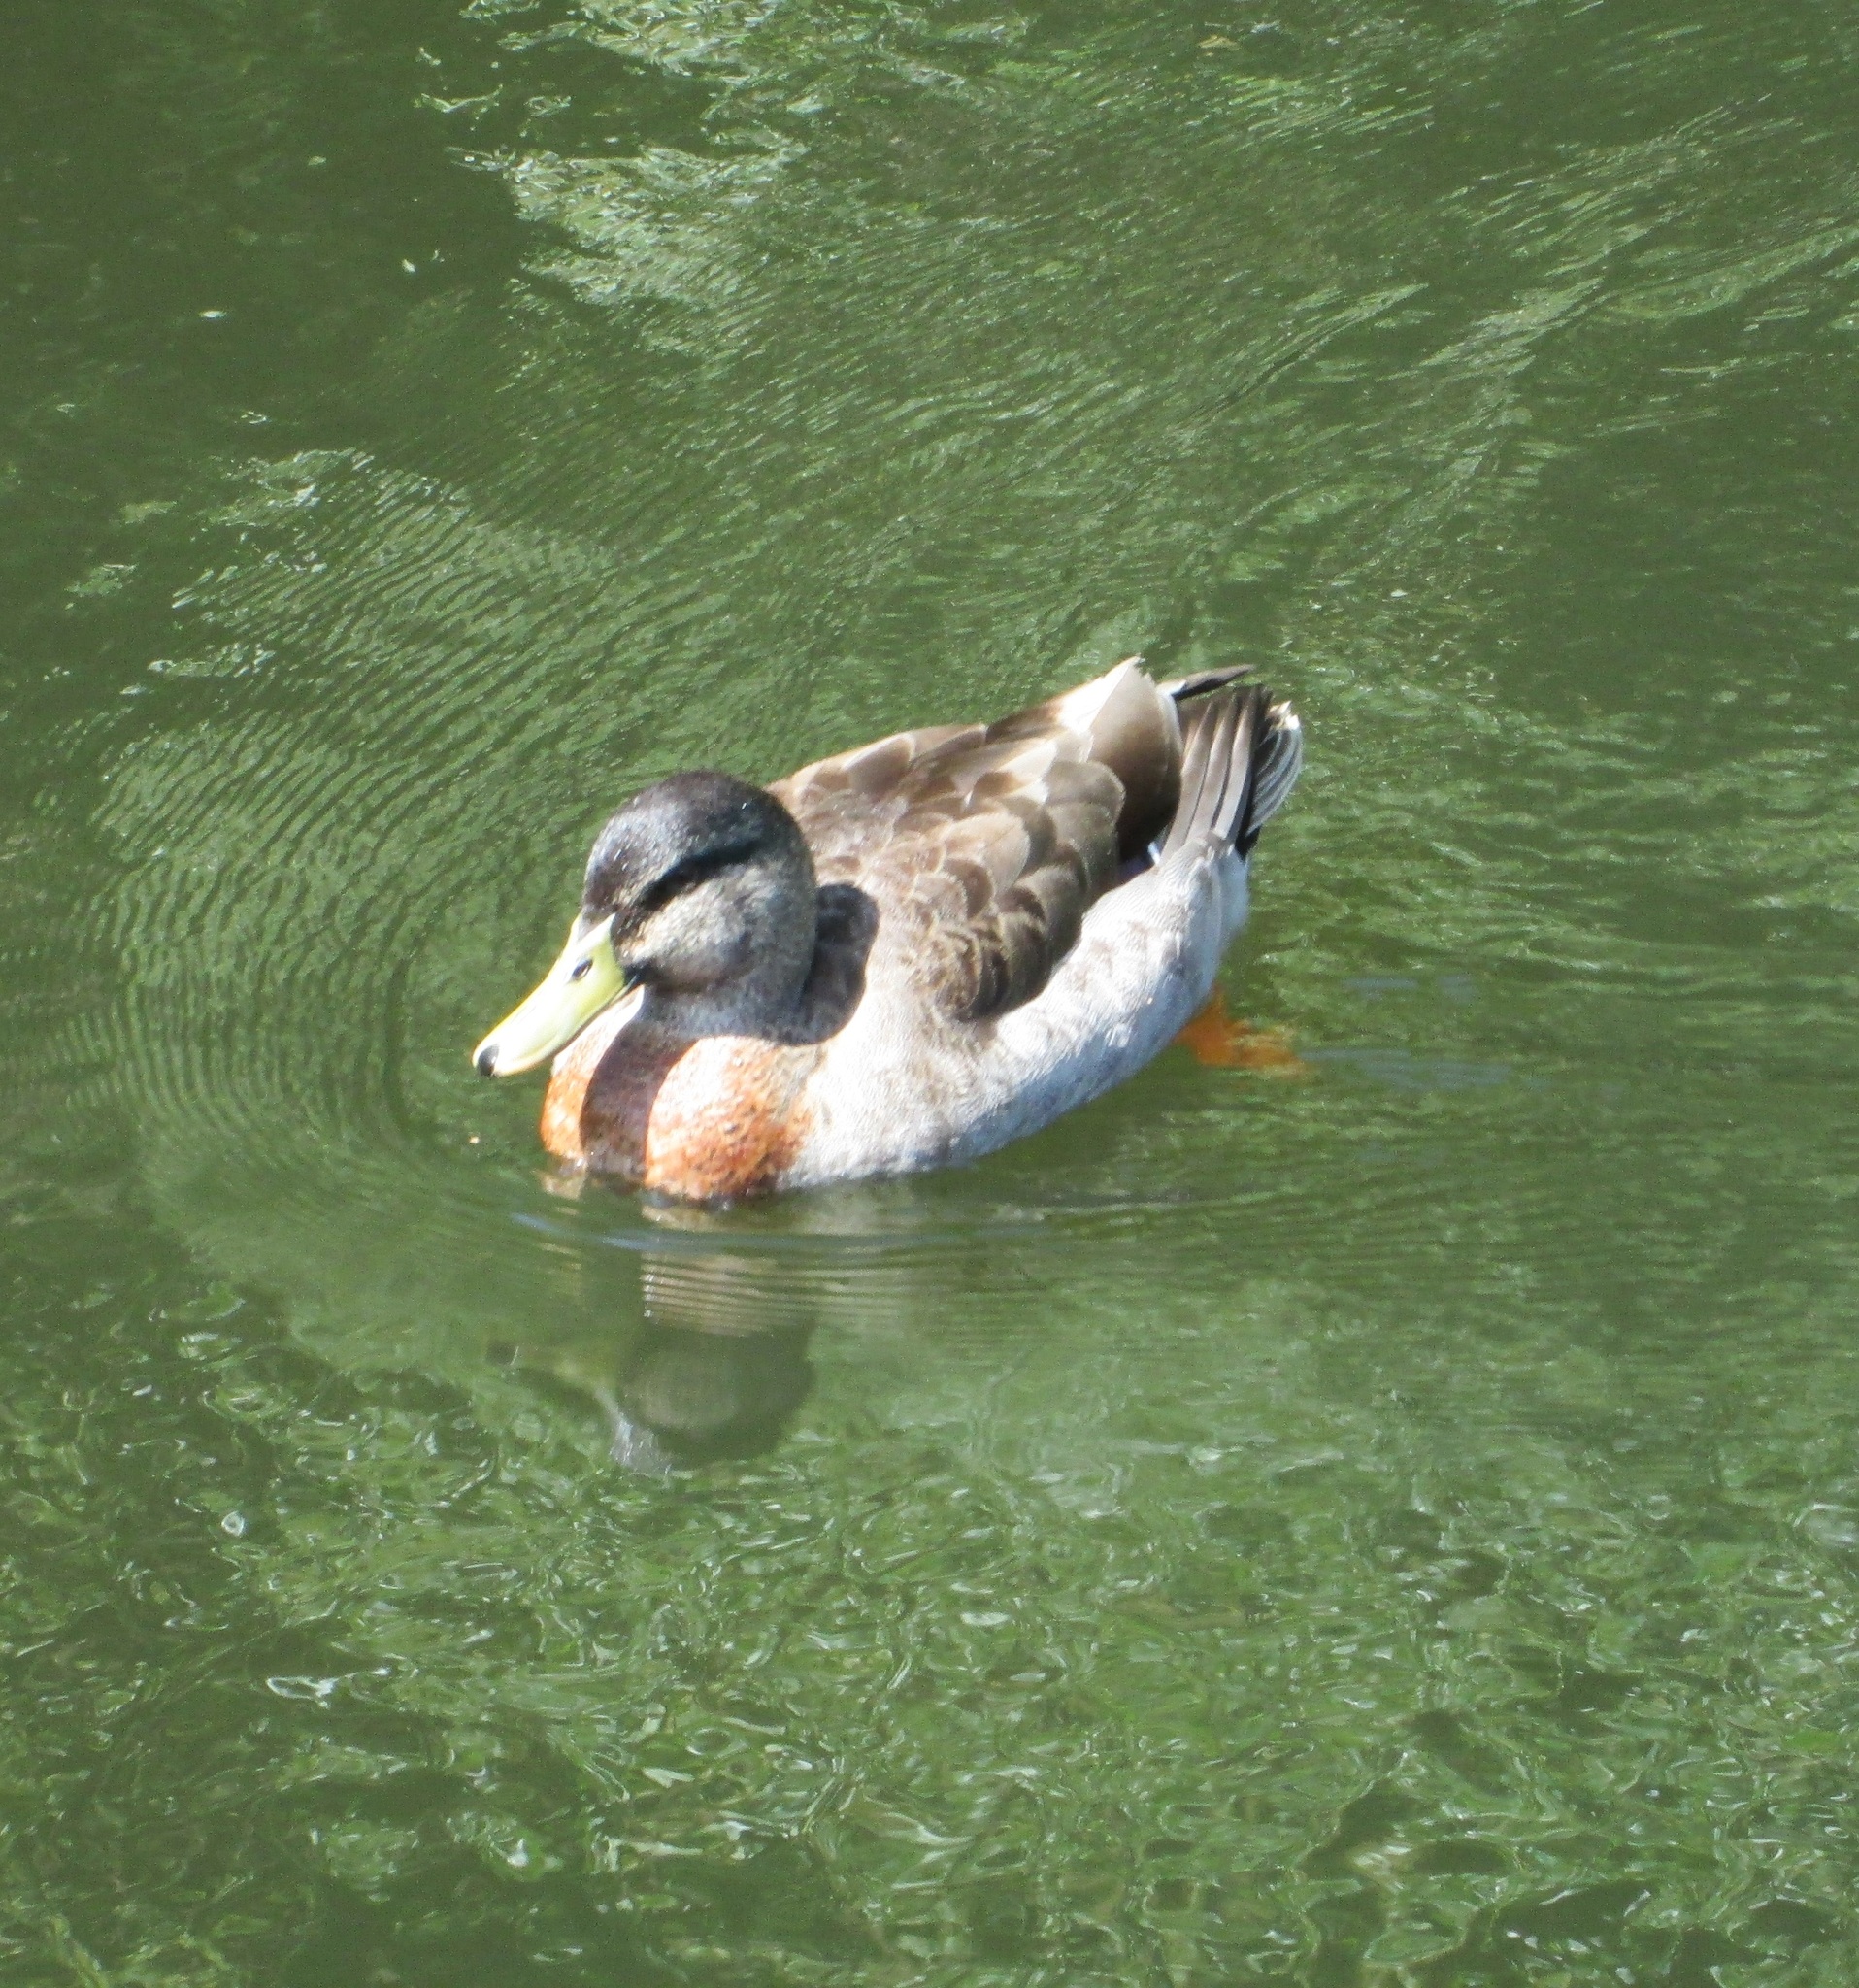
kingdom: Animalia
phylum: Chordata
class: Aves
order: Anseriformes
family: Anatidae
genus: Anas
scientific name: Anas
